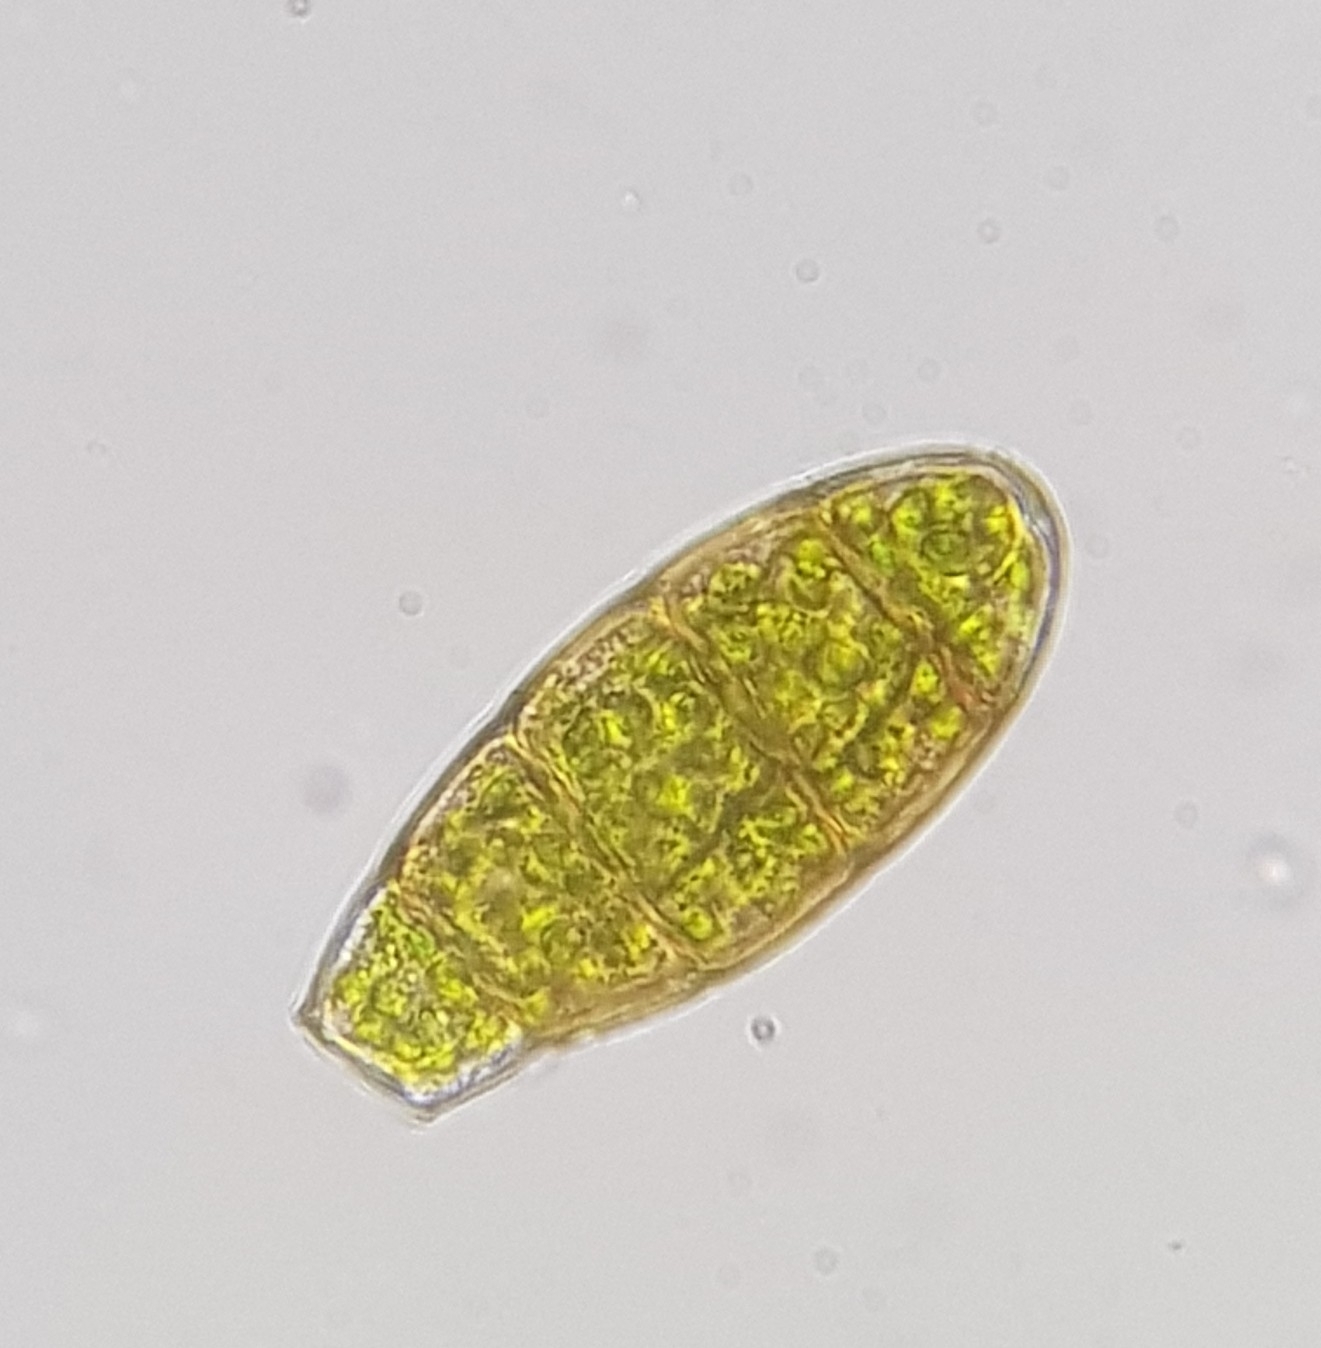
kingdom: Plantae
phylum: Bryophyta
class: Bryopsida
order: Orthotrichales
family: Orthotrichaceae
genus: Zygodon
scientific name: Zygodon viridissimus
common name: Green yoke moss
